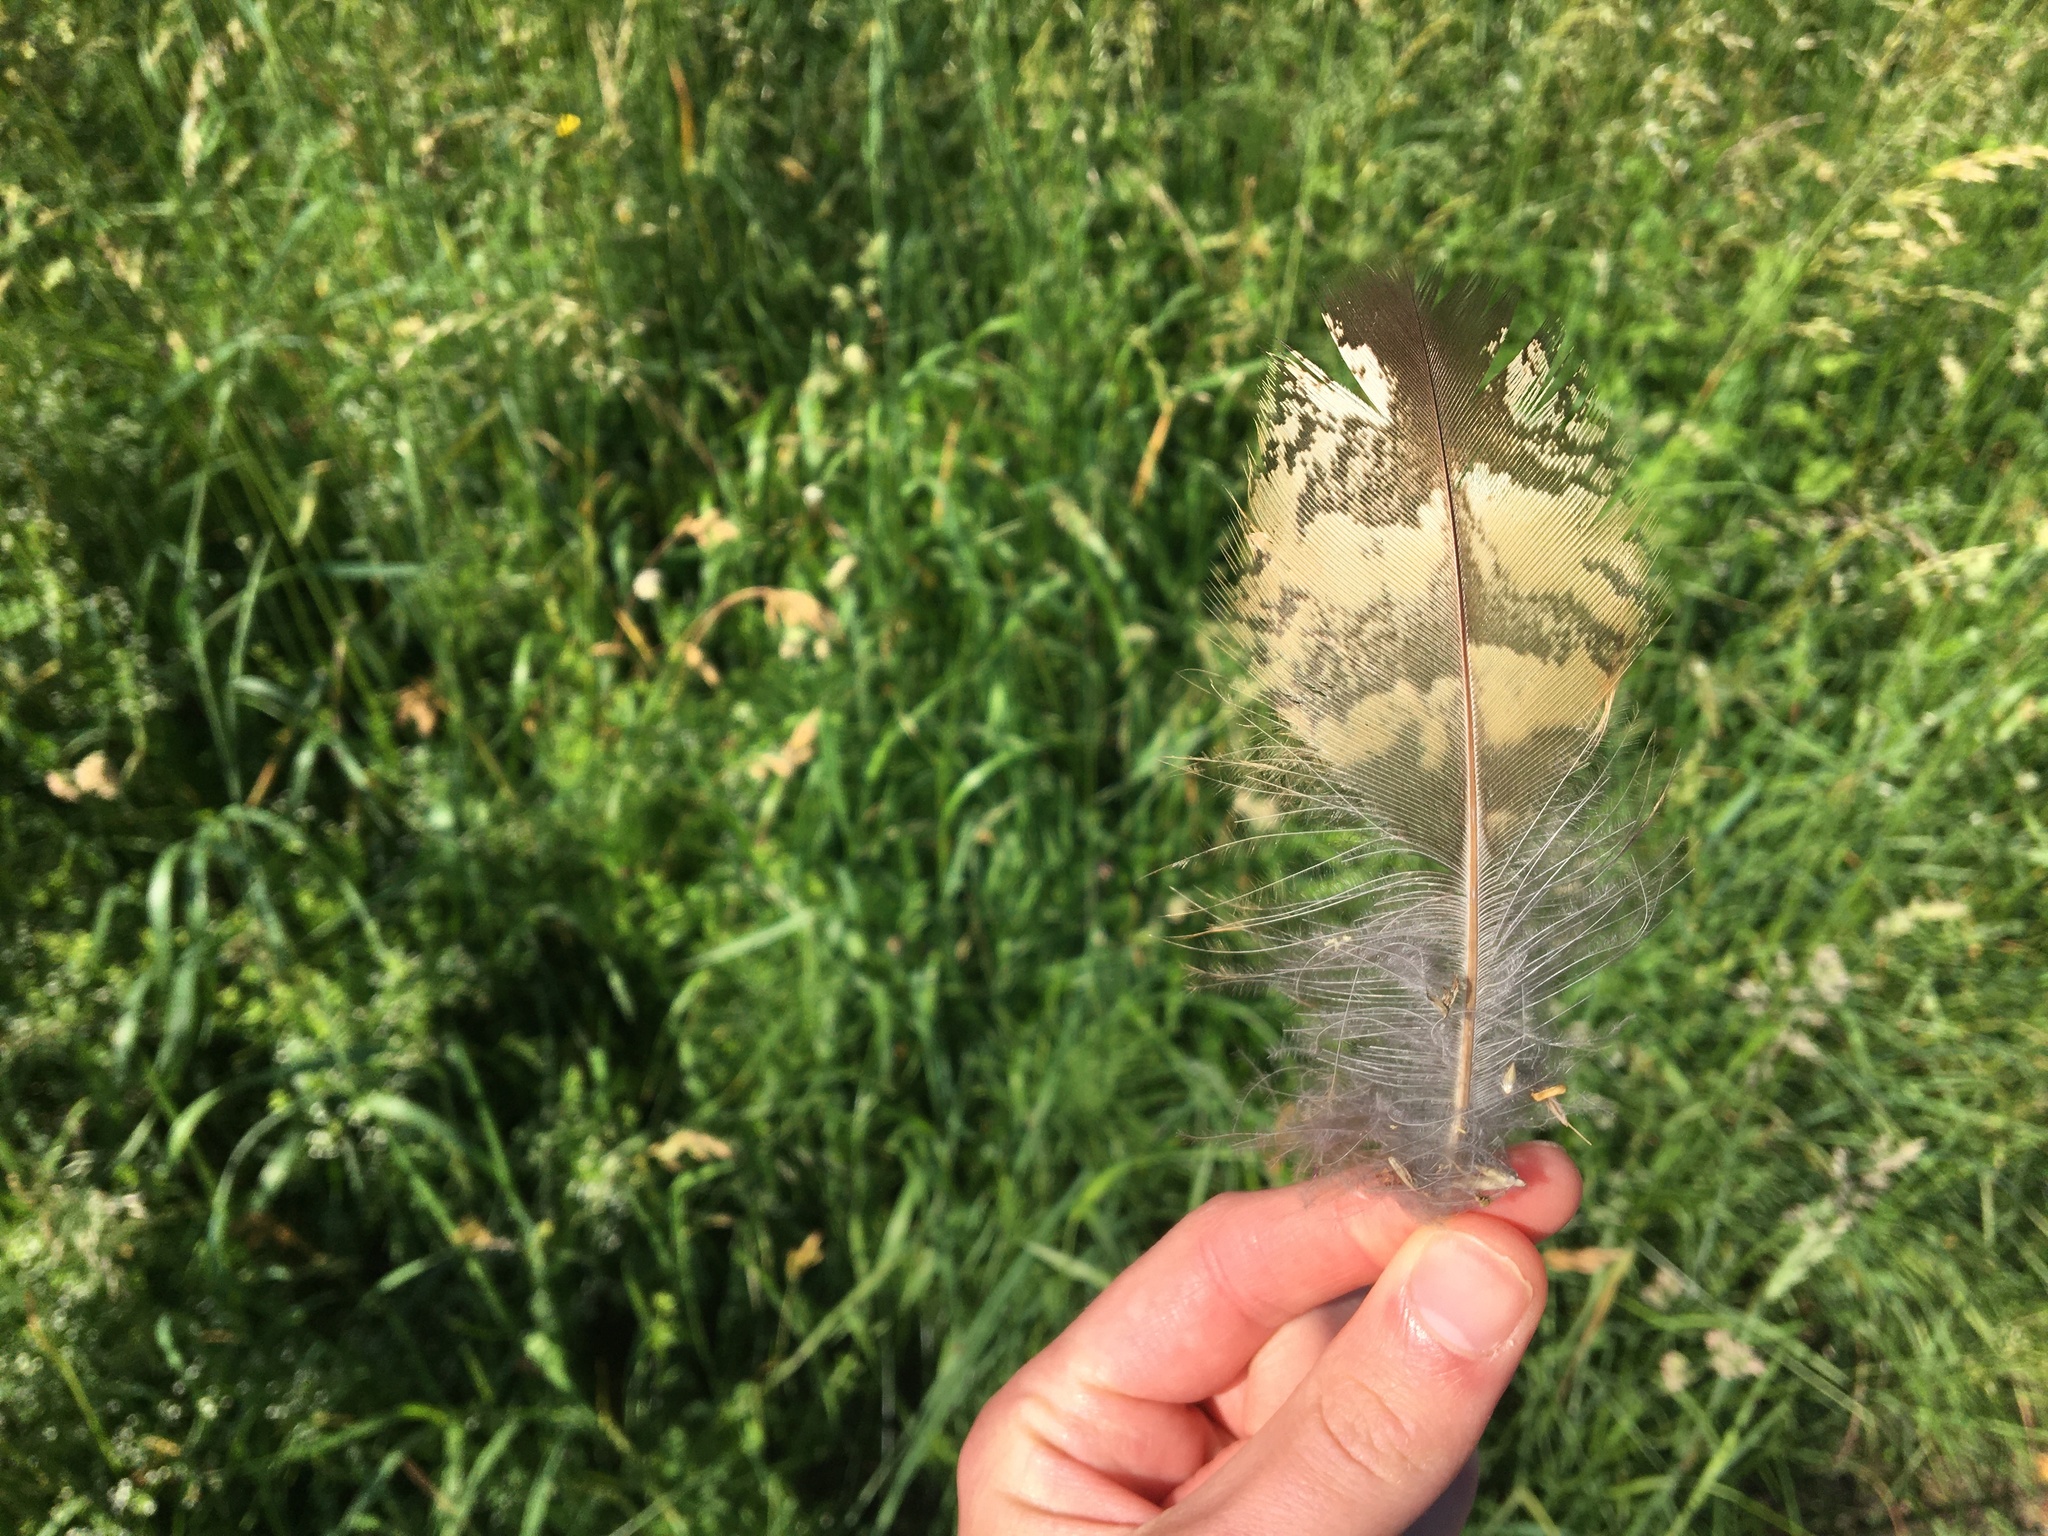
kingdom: Animalia
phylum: Chordata
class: Aves
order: Strigiformes
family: Strigidae
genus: Bubo
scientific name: Bubo bubo
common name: Eurasian eagle-owl
